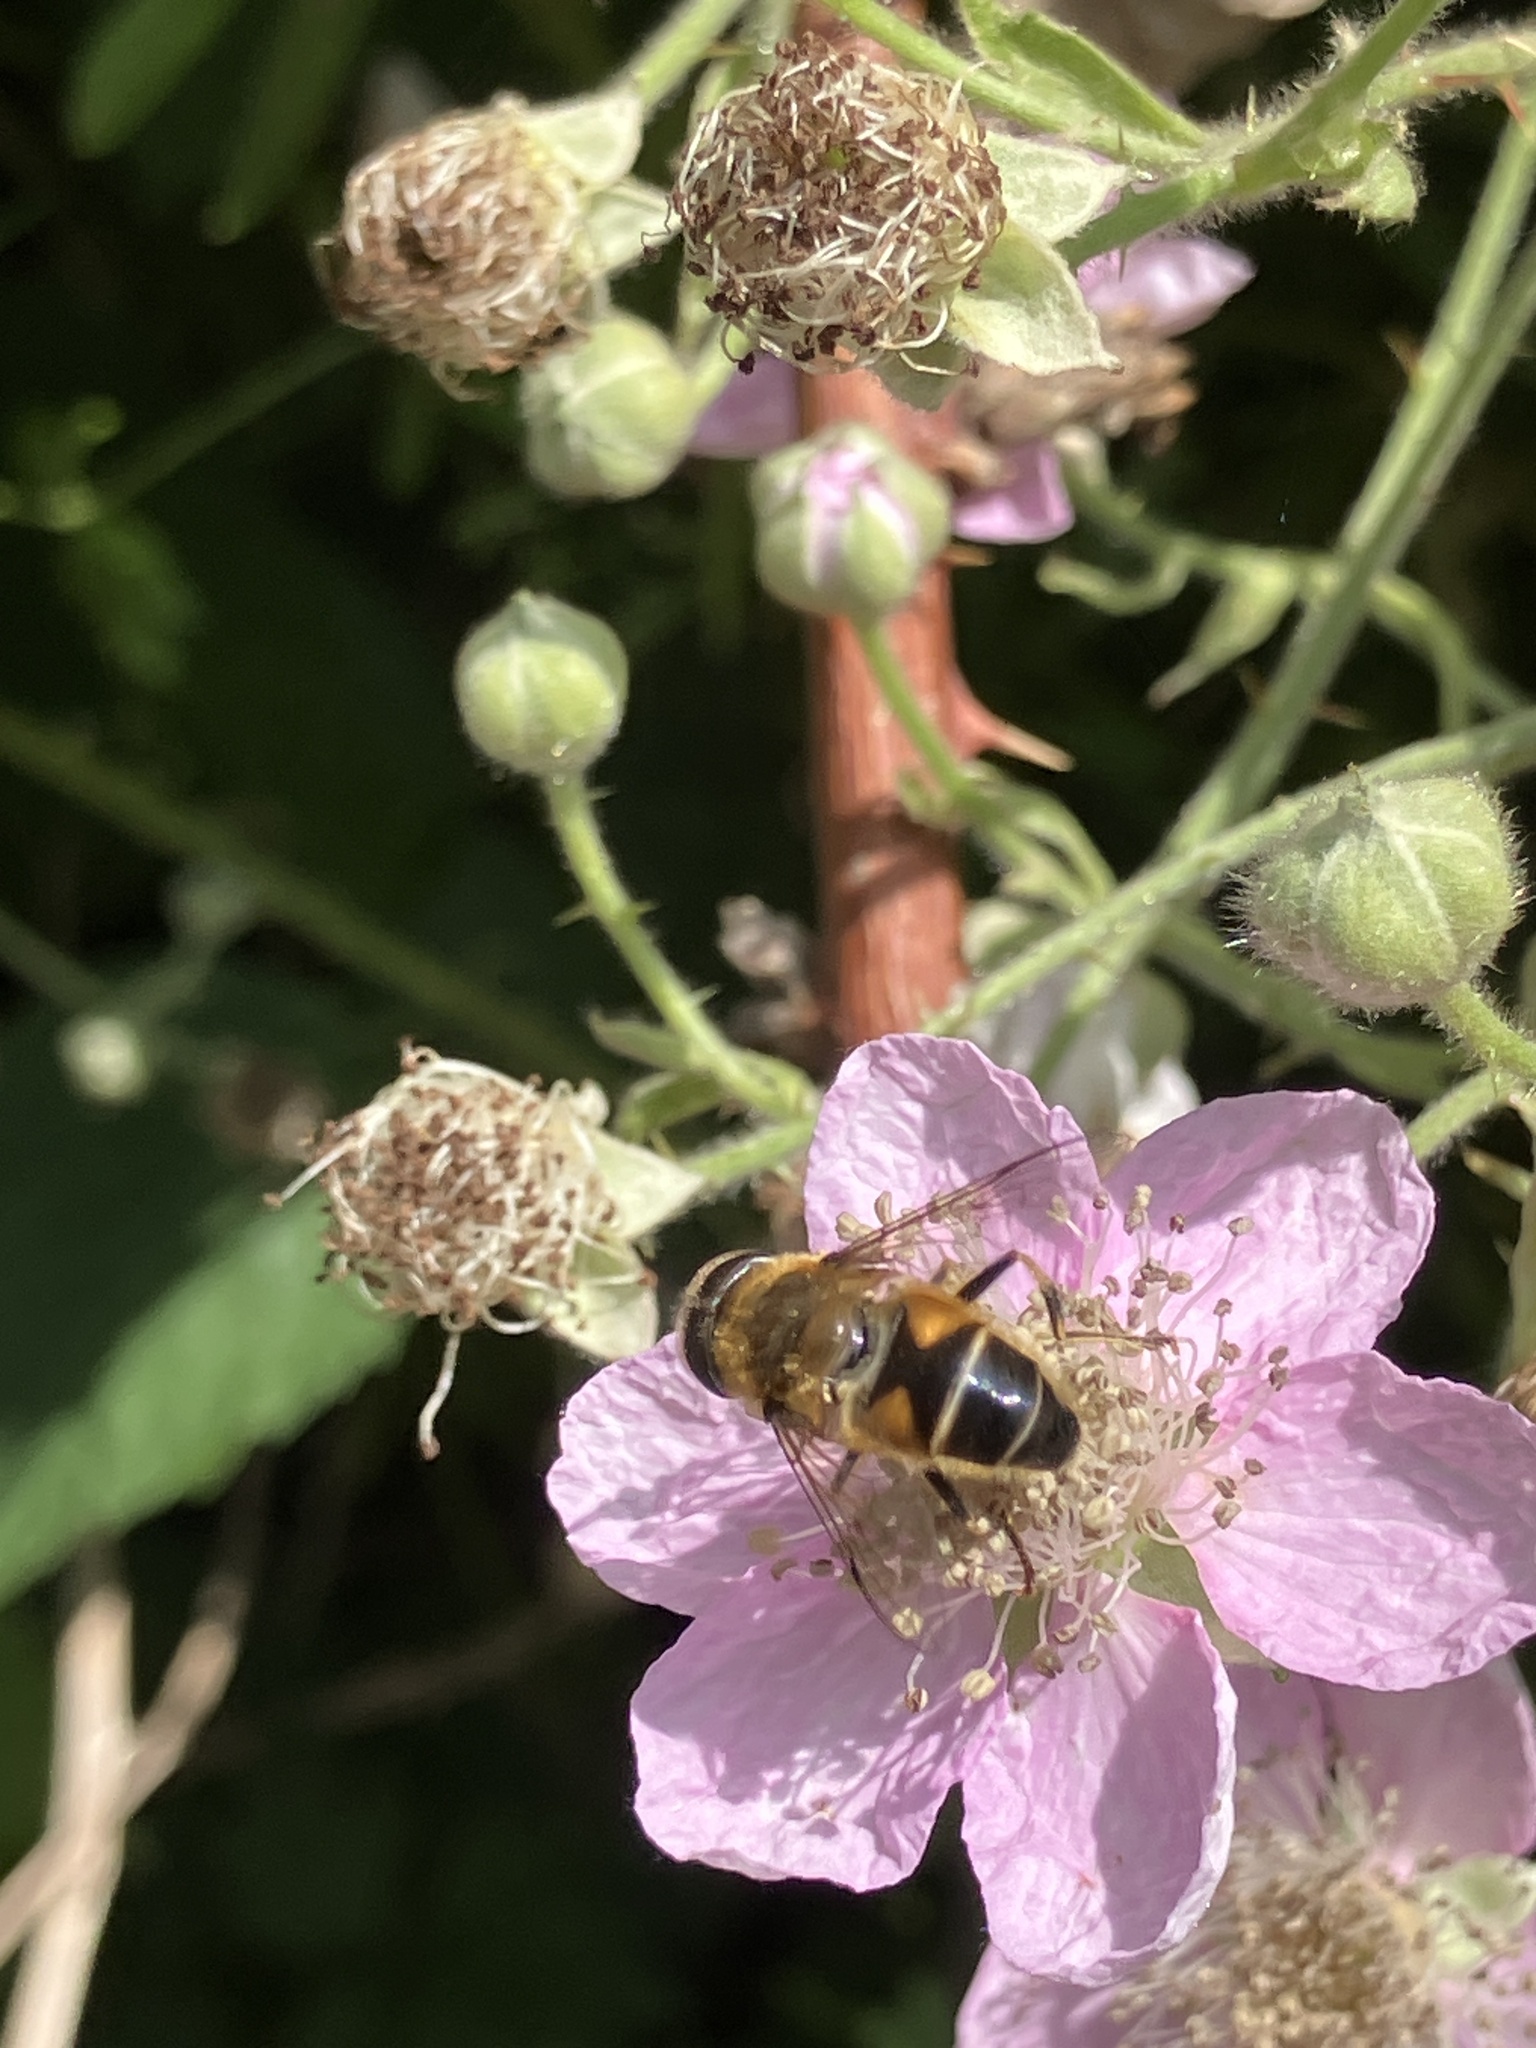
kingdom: Animalia
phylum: Arthropoda
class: Insecta
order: Diptera
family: Syrphidae
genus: Eristalis
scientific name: Eristalis pertinax
